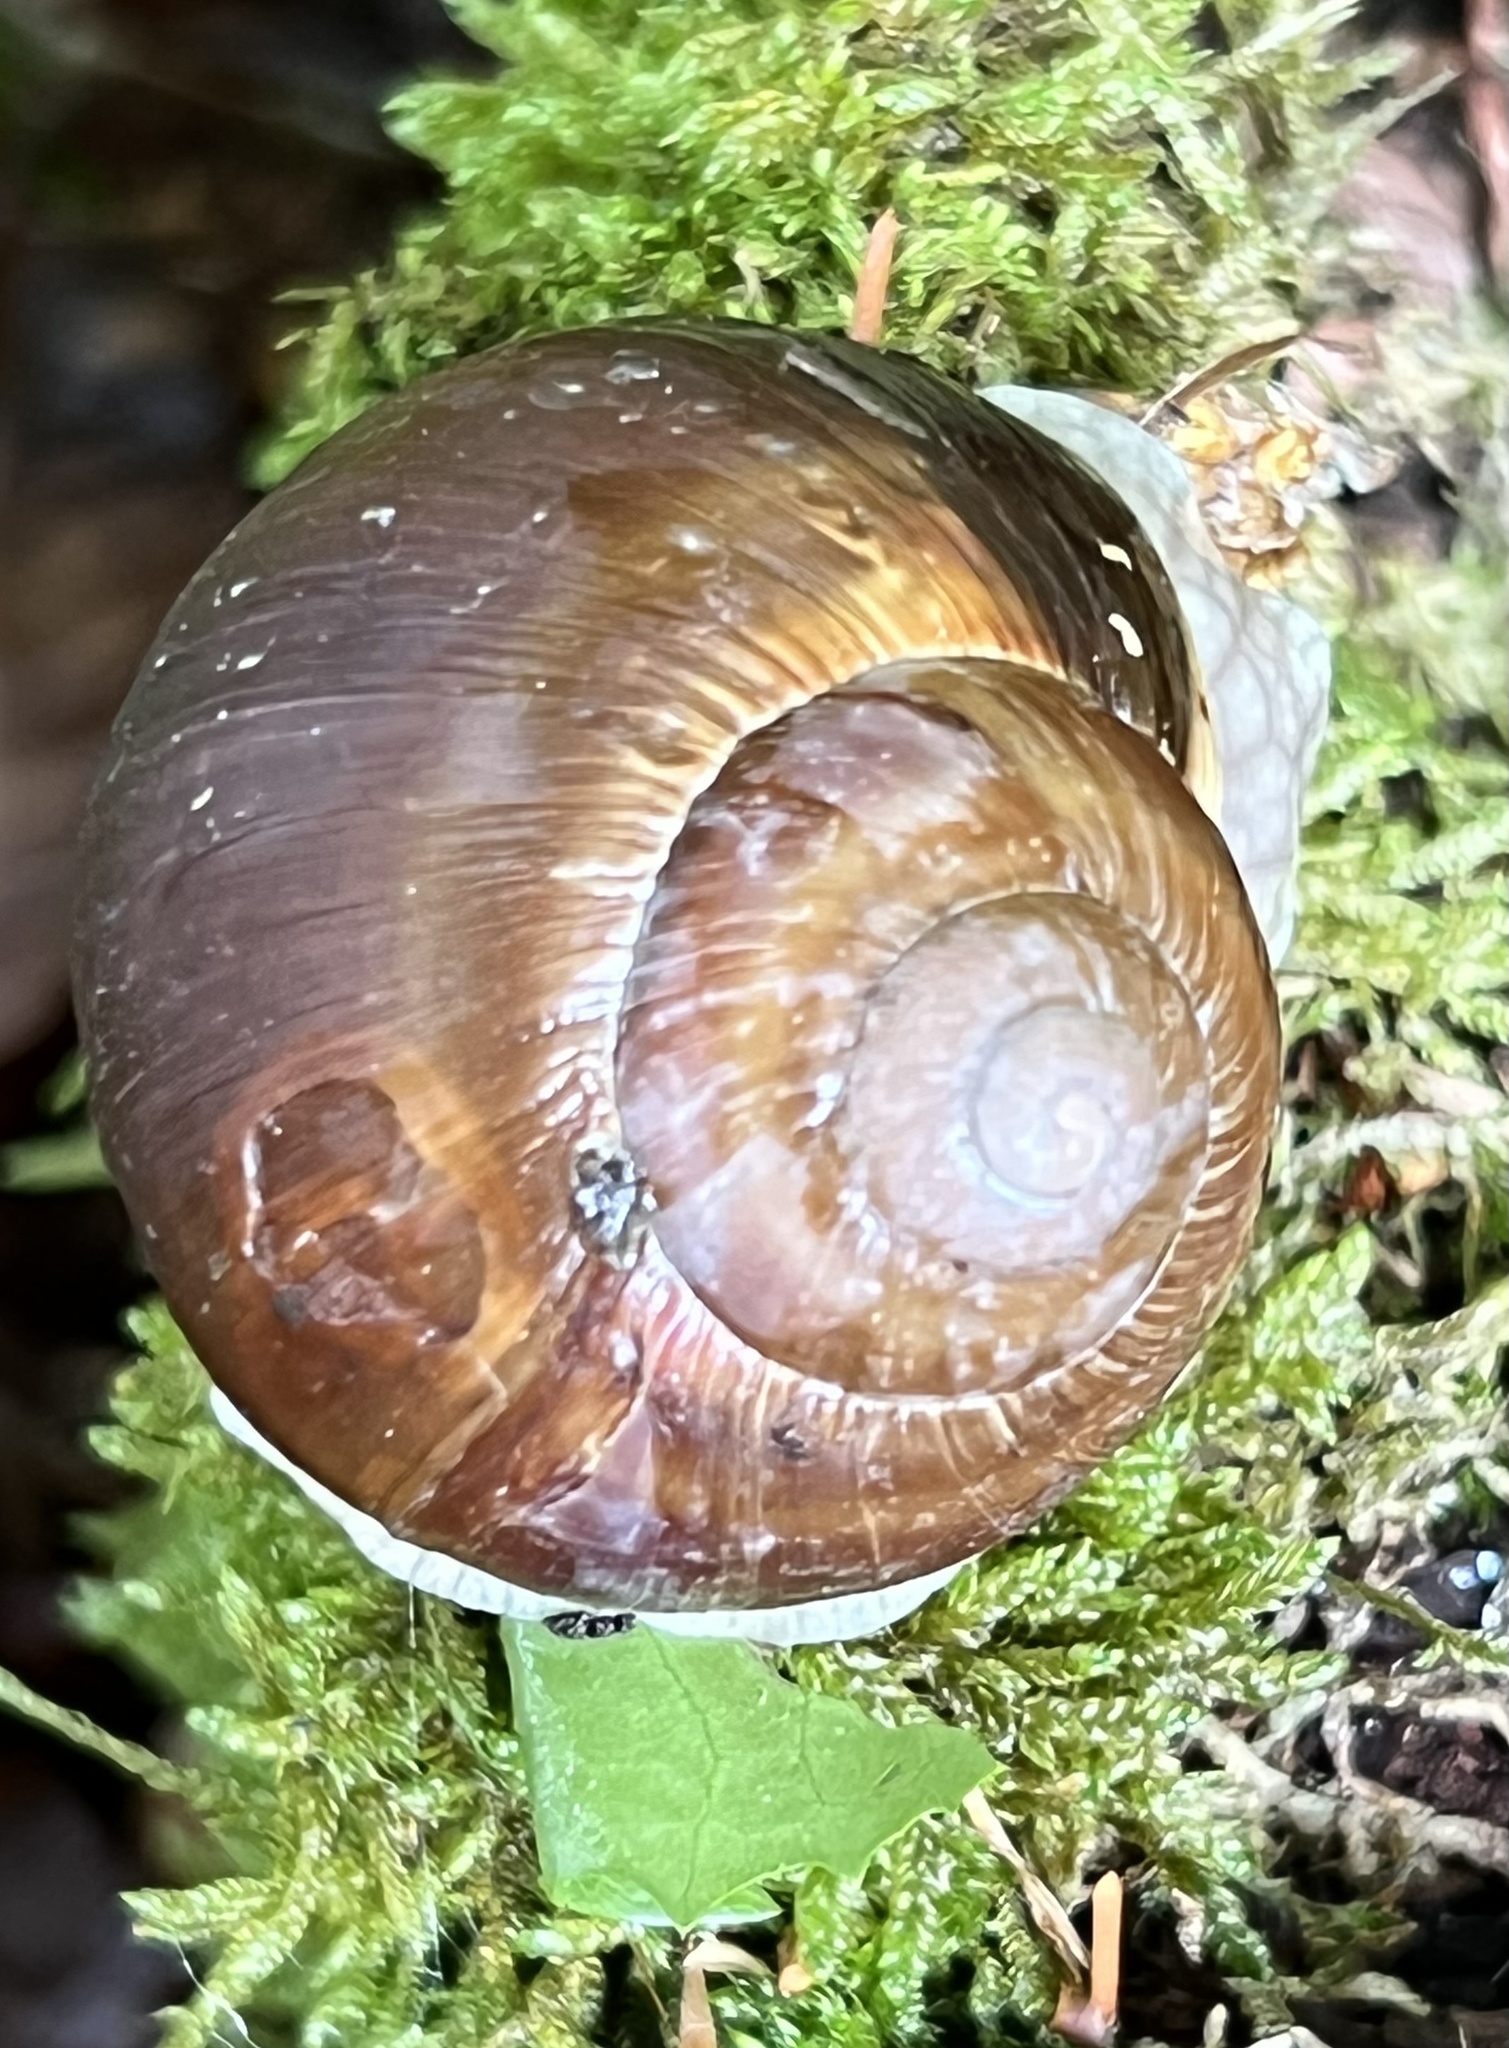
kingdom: Animalia
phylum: Mollusca
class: Gastropoda
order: Stylommatophora
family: Helicidae
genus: Helix
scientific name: Helix pomatia
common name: Roman snail
